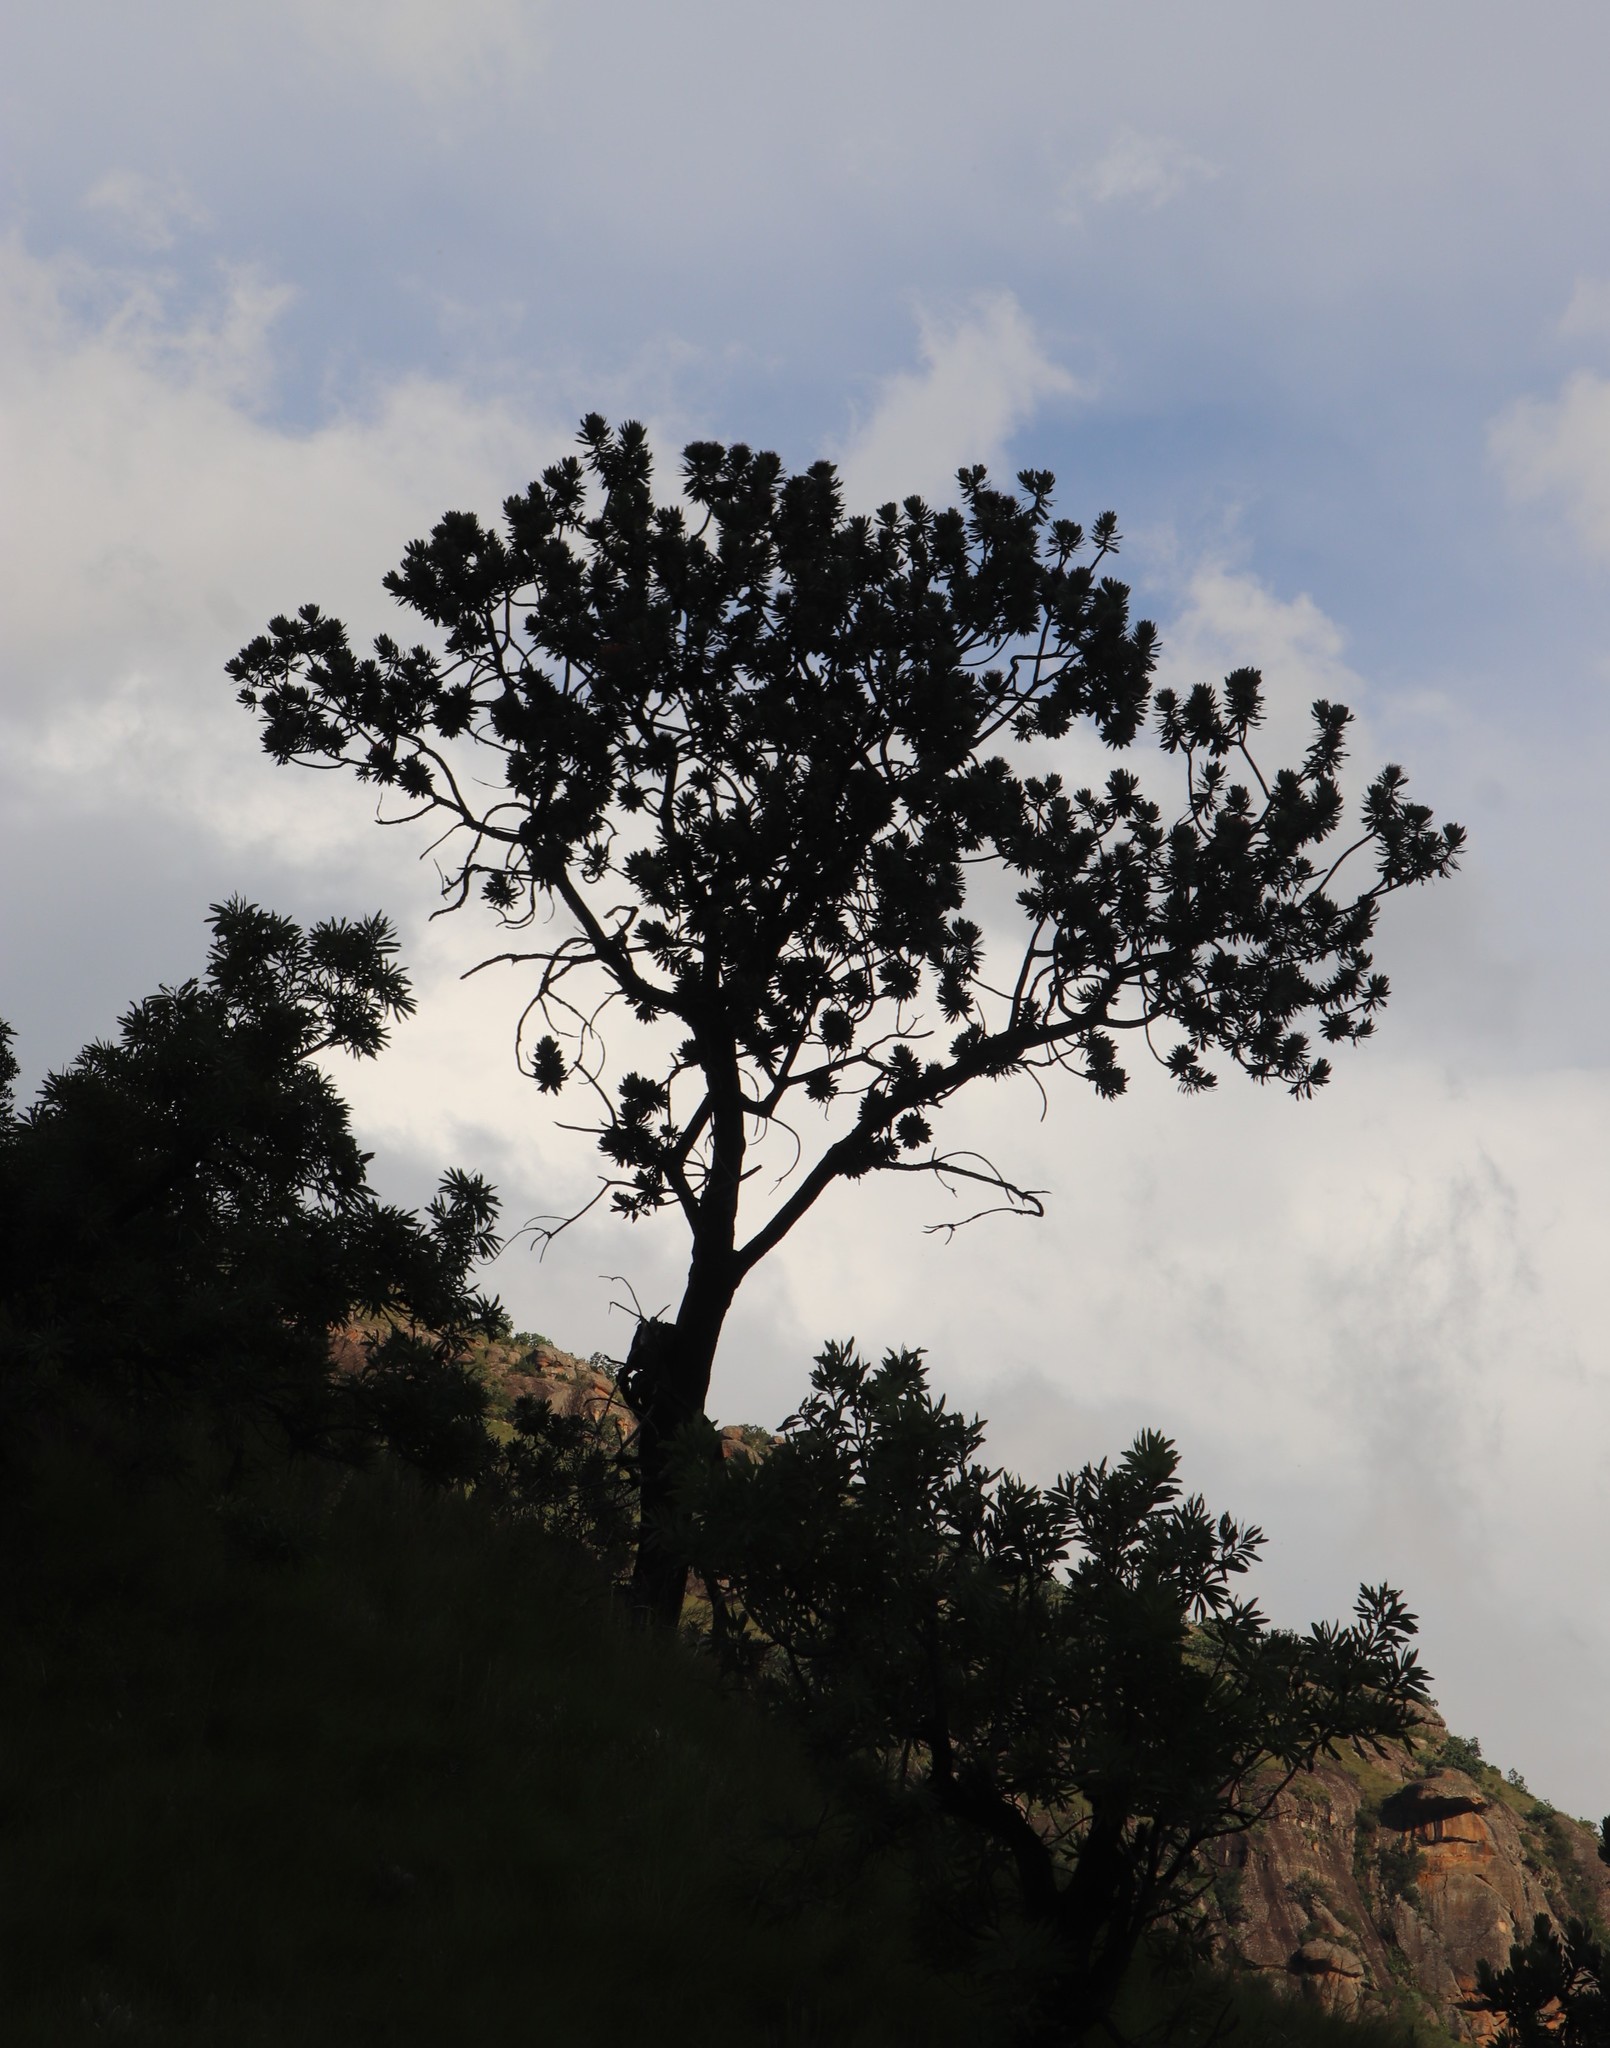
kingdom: Plantae
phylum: Tracheophyta
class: Magnoliopsida
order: Proteales
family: Proteaceae
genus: Protea
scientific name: Protea roupelliae
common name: Silver sugarbush
